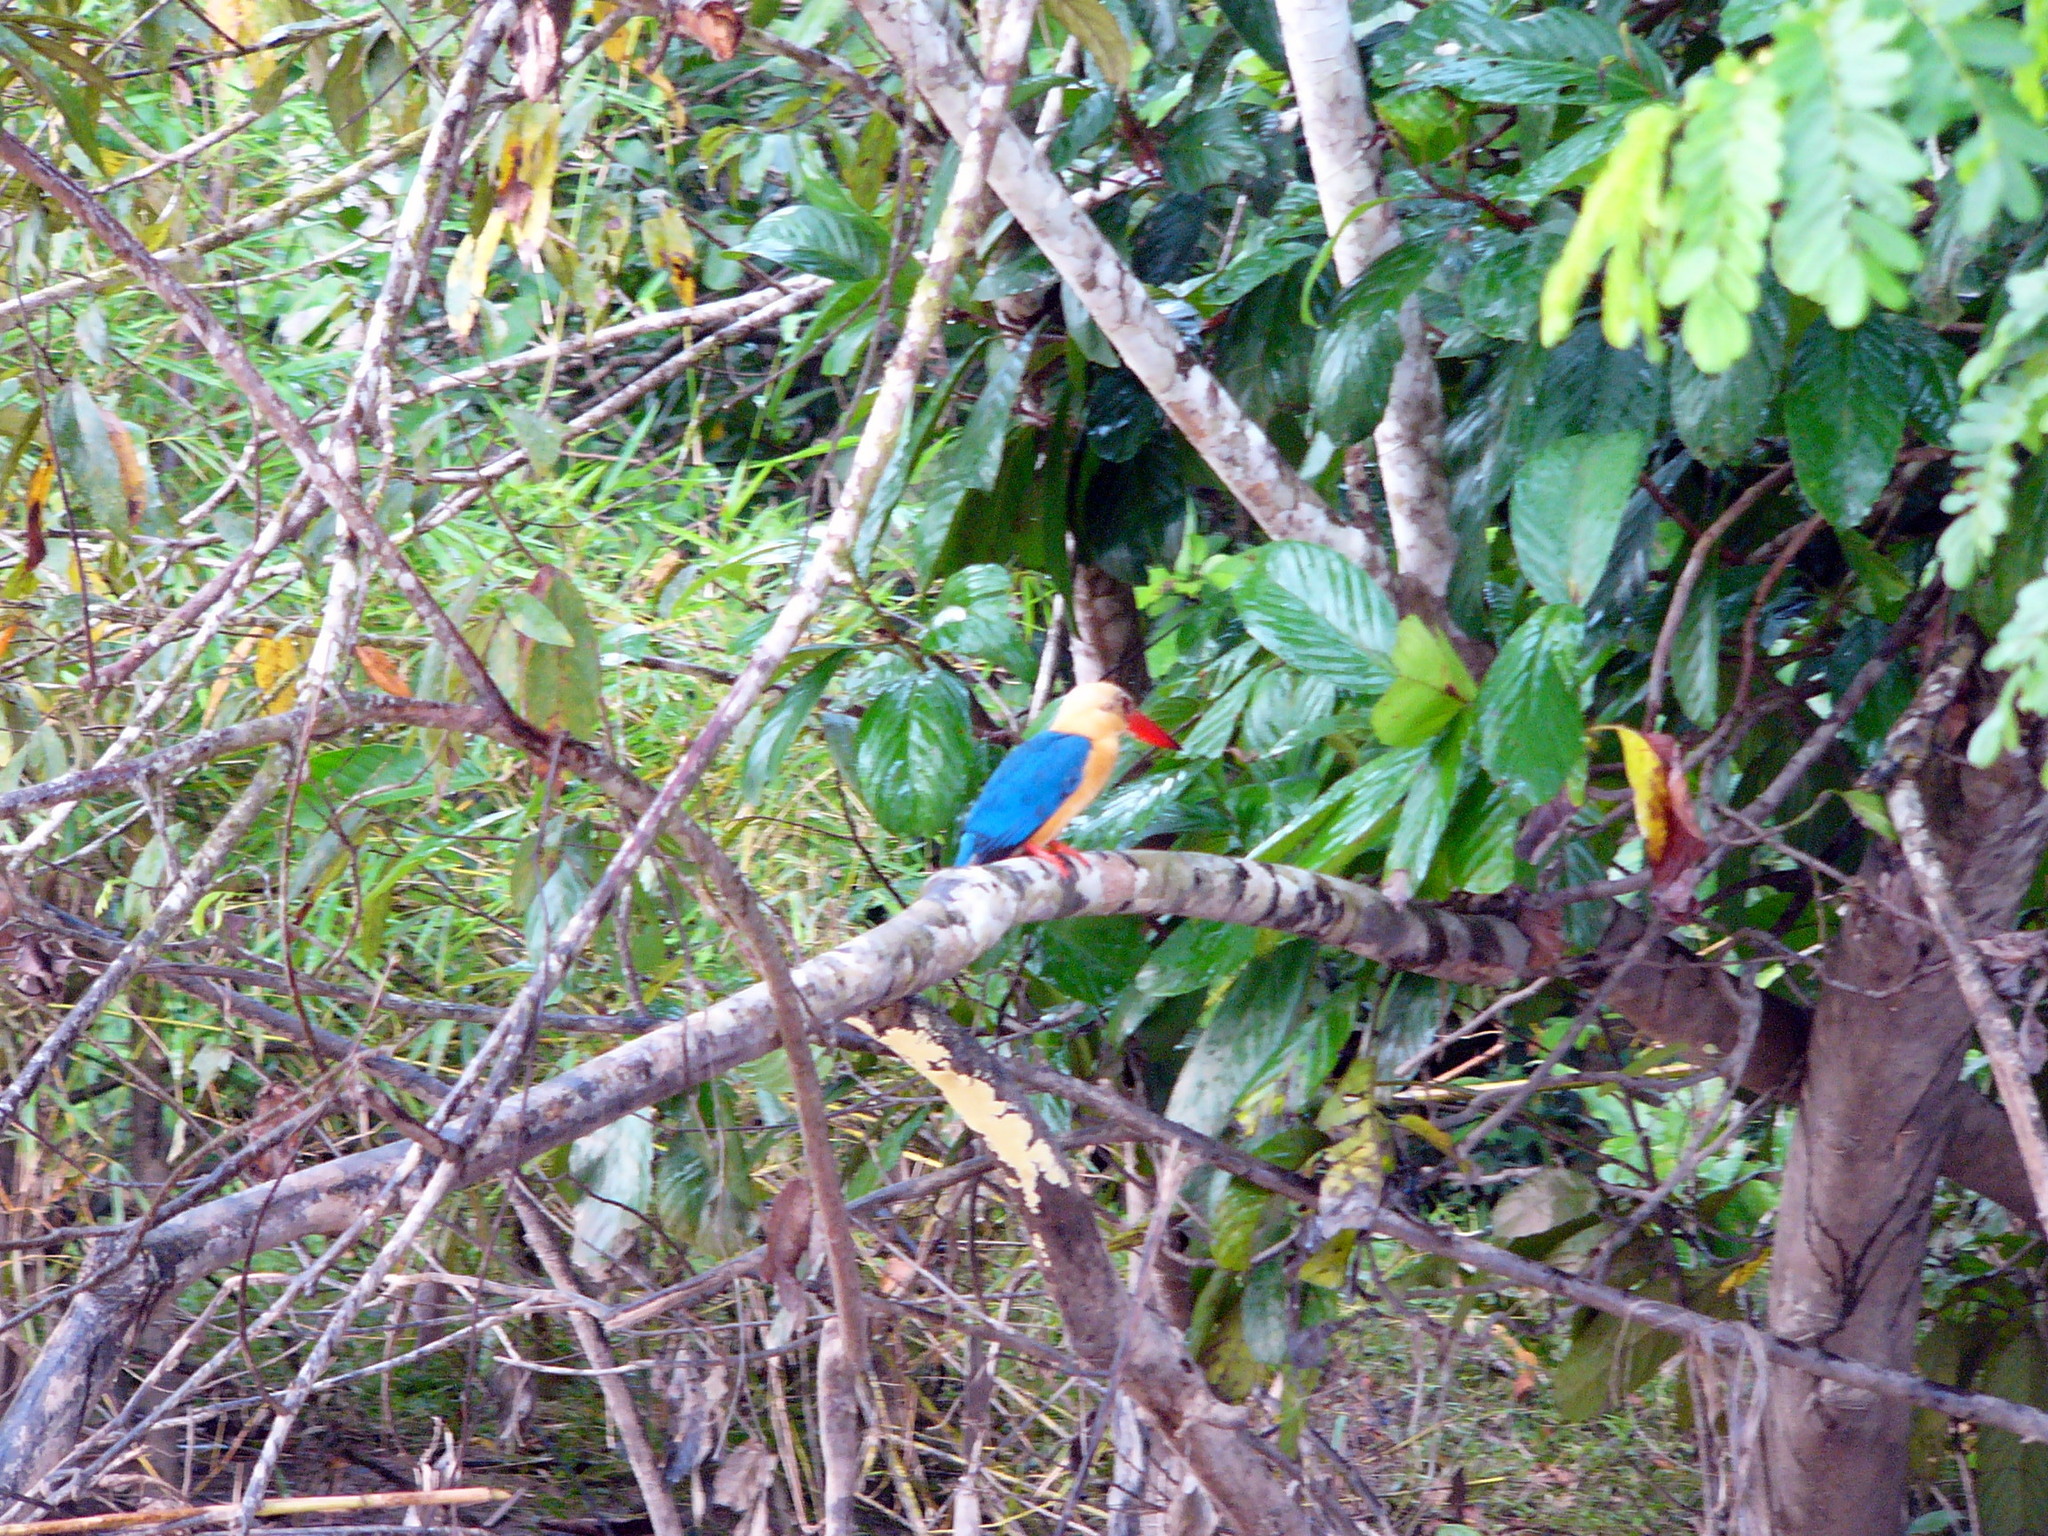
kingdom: Animalia
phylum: Chordata
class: Aves
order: Coraciiformes
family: Alcedinidae
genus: Pelargopsis
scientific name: Pelargopsis capensis
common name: Stork-billed kingfisher
